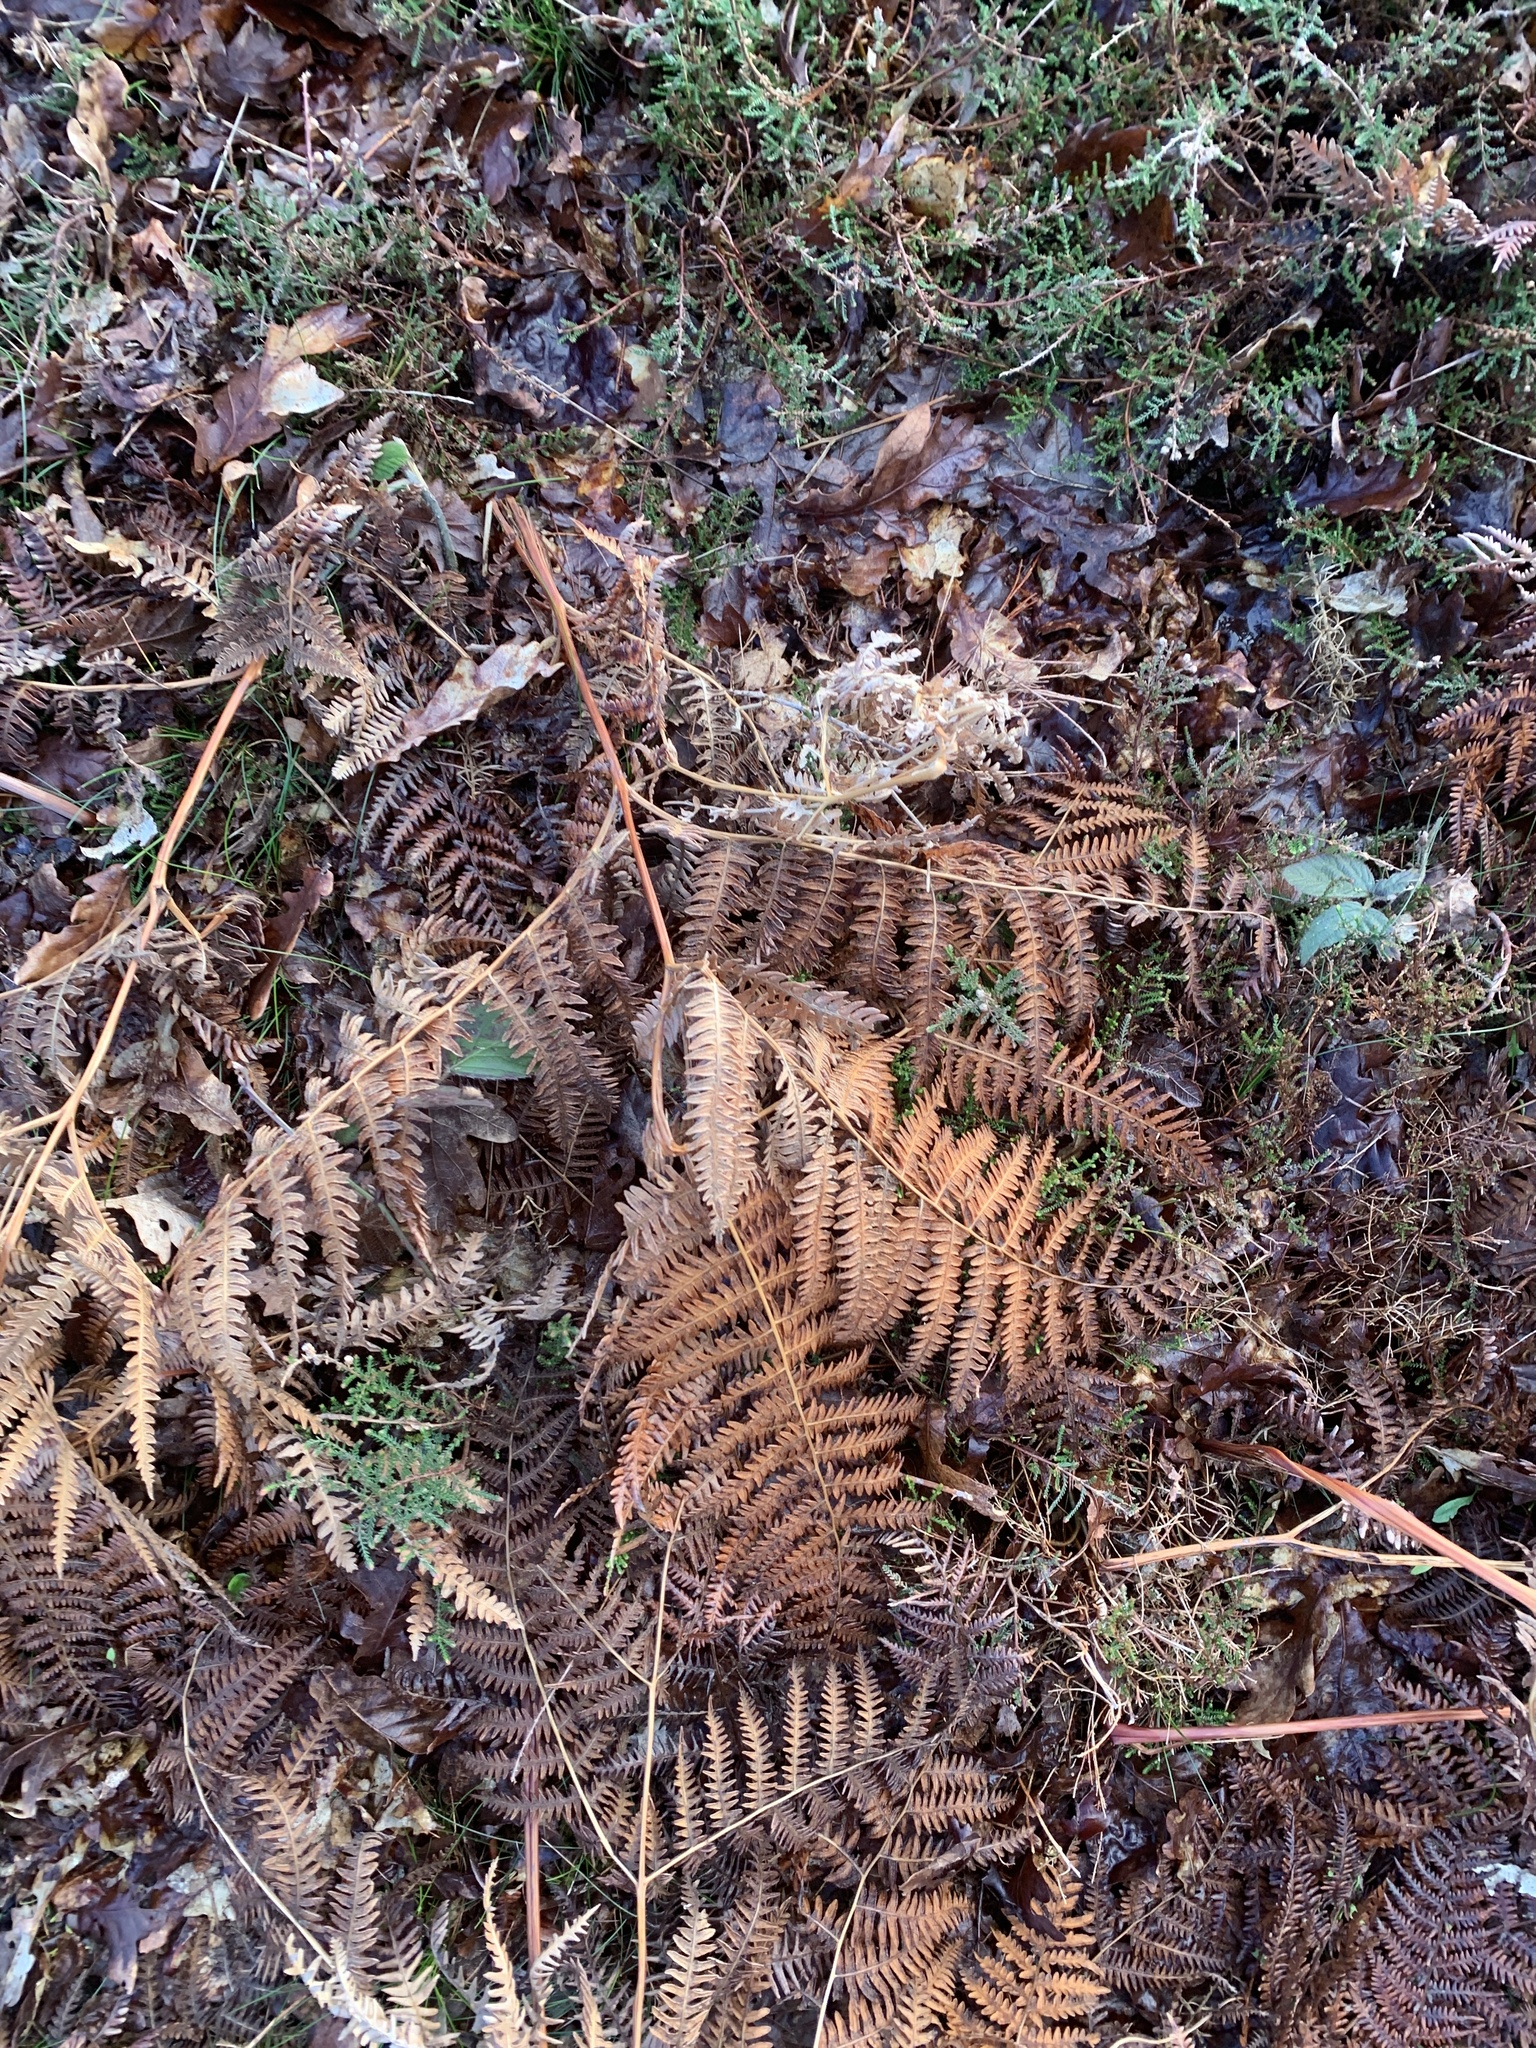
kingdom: Plantae
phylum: Tracheophyta
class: Polypodiopsida
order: Polypodiales
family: Dennstaedtiaceae
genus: Pteridium
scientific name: Pteridium aquilinum
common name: Bracken
